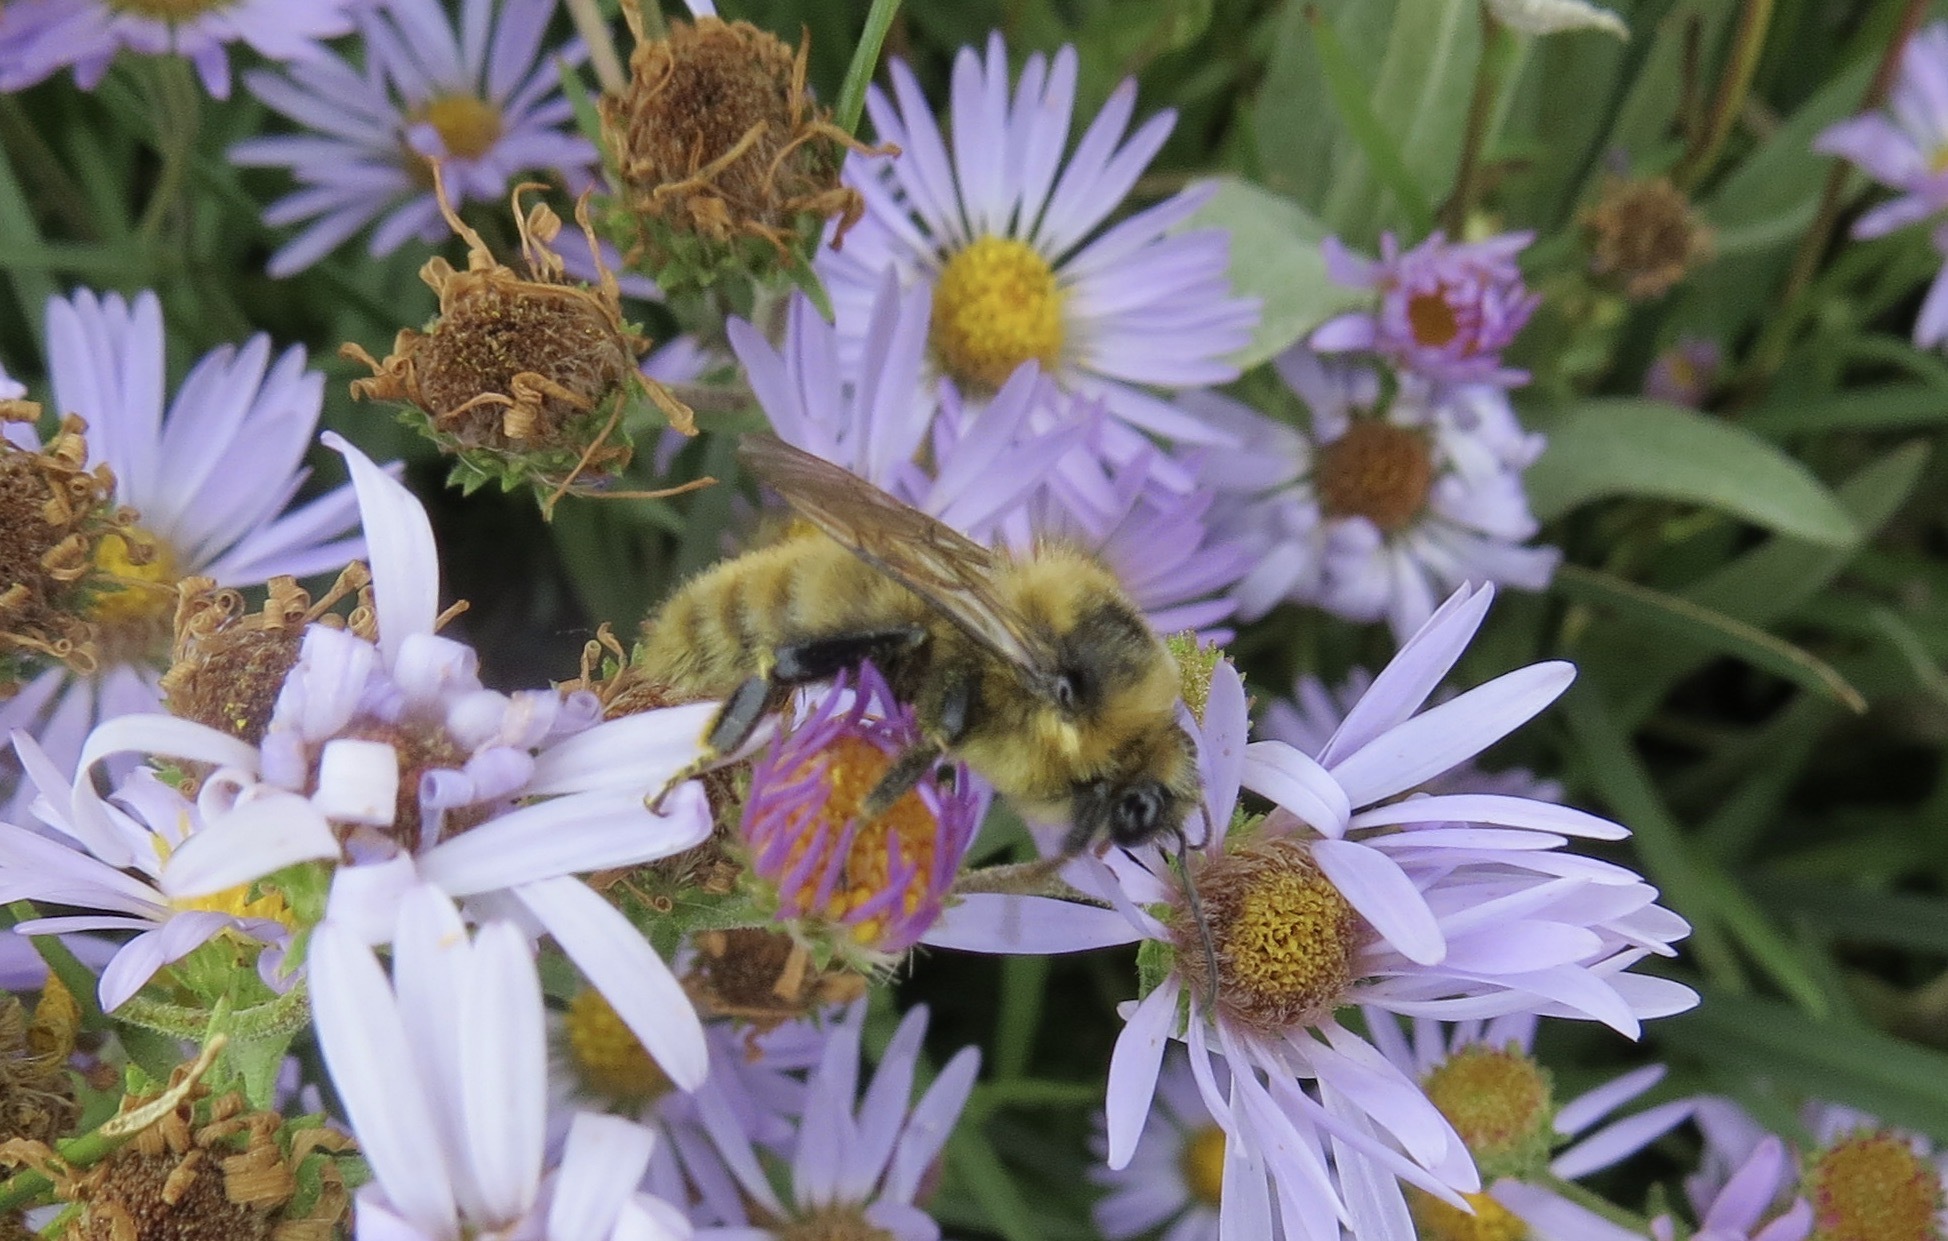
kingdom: Animalia
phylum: Arthropoda
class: Insecta
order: Hymenoptera
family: Apidae
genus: Bombus
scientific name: Bombus rufocinctus
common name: Red-belted bumble bee
